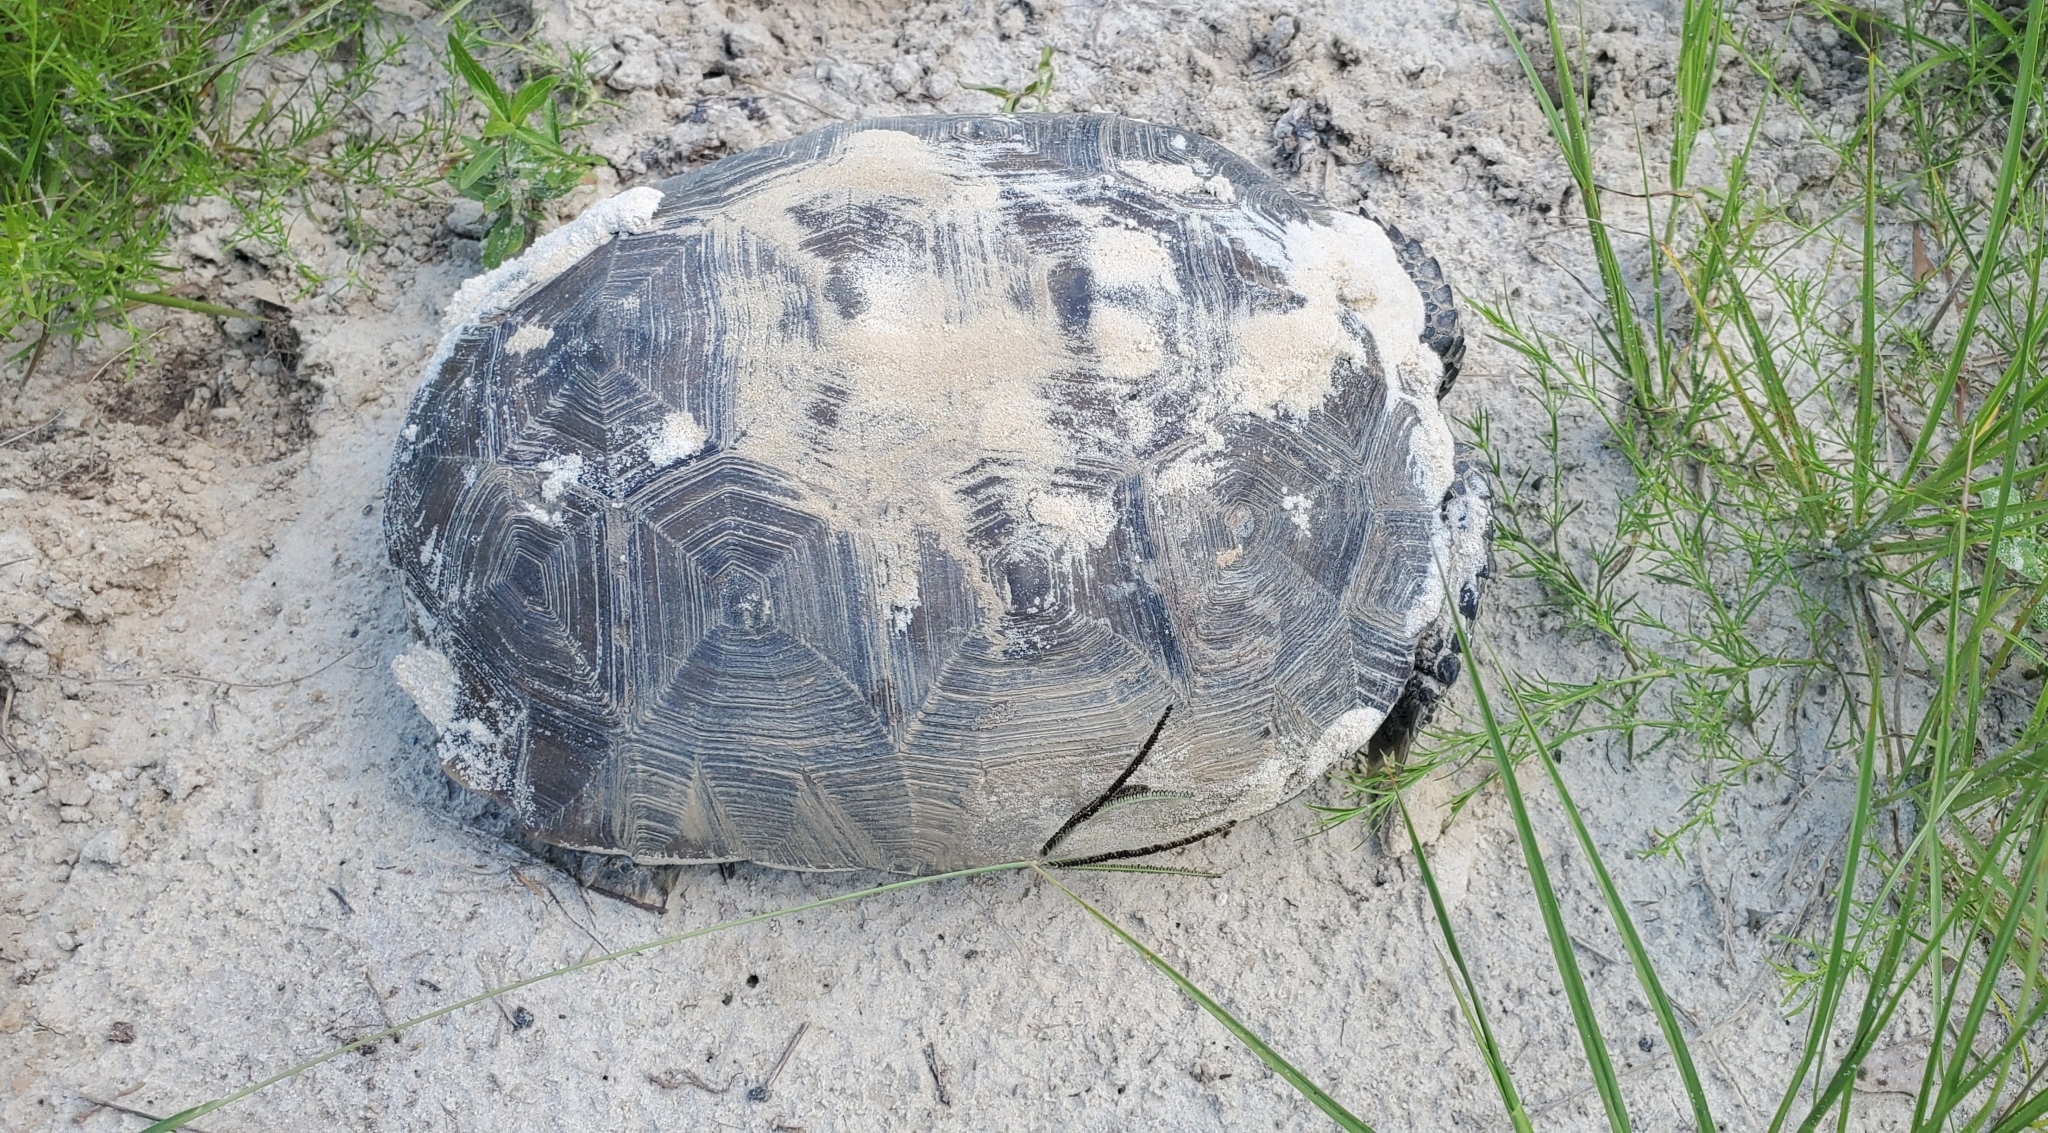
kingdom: Animalia
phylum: Chordata
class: Testudines
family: Testudinidae
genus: Gopherus
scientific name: Gopherus polyphemus
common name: Florida gopher tortoise
